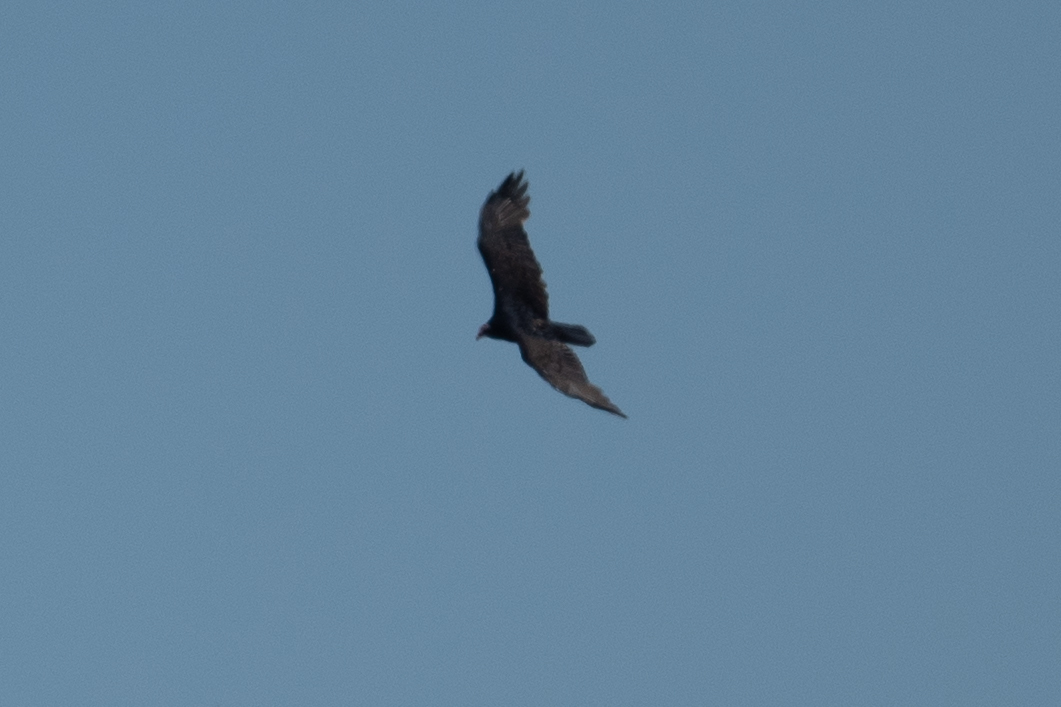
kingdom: Animalia
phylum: Chordata
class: Aves
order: Accipitriformes
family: Cathartidae
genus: Cathartes
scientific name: Cathartes aura
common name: Turkey vulture
